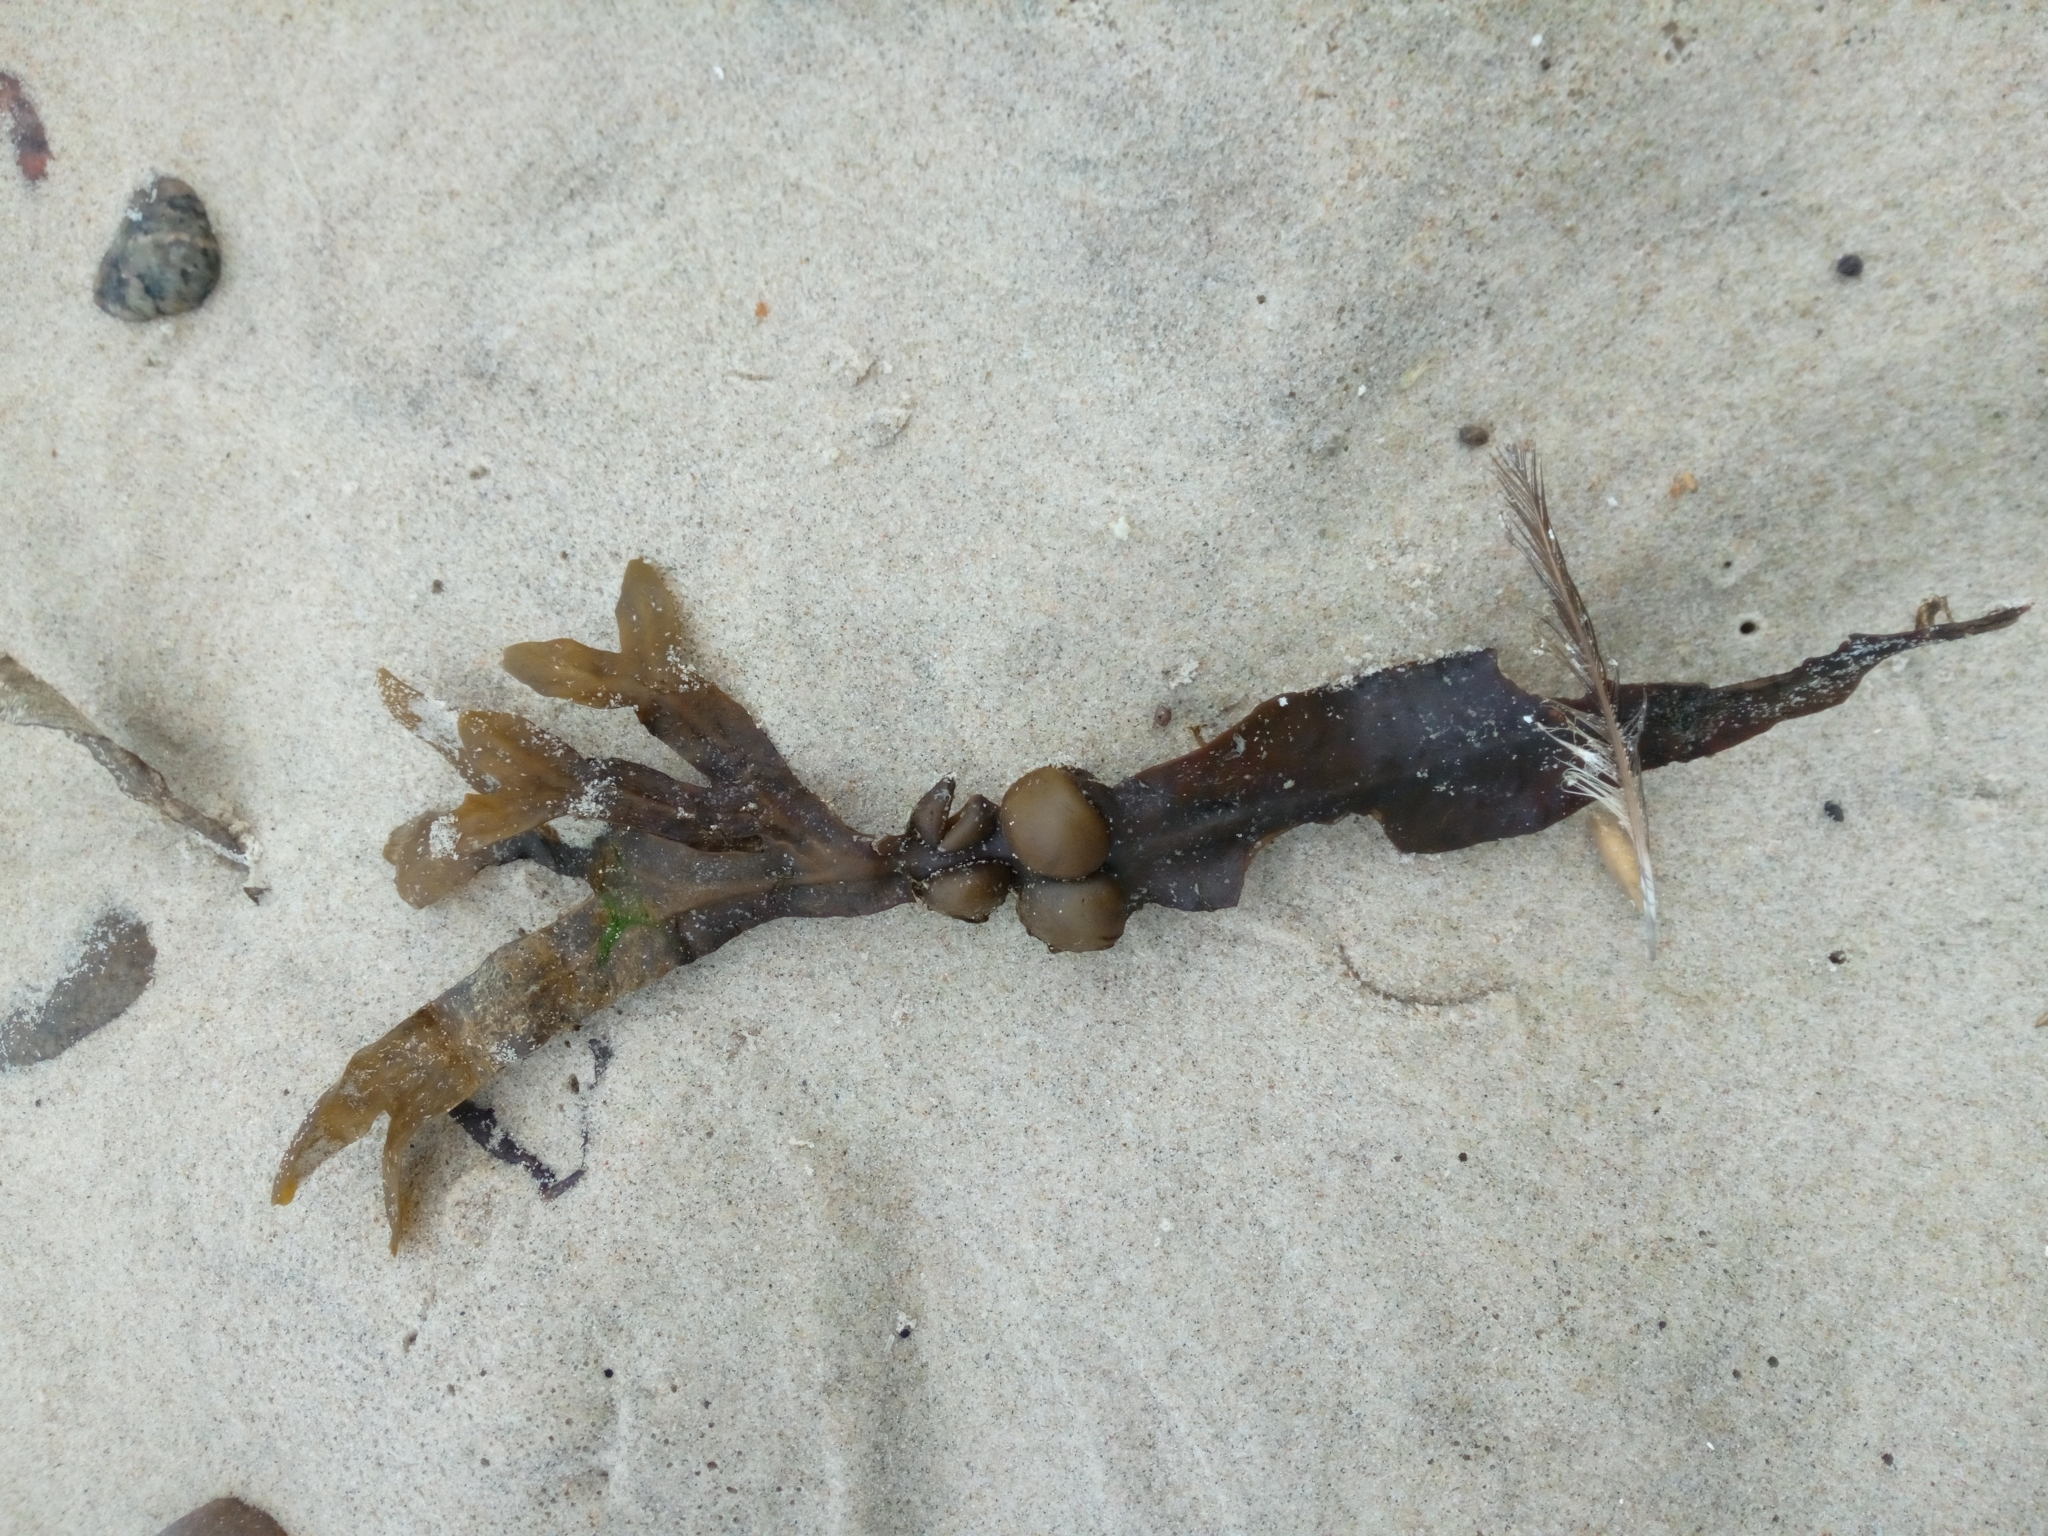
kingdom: Chromista
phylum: Ochrophyta
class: Phaeophyceae
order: Fucales
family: Fucaceae
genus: Fucus
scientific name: Fucus vesiculosus
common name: Bladder wrack
